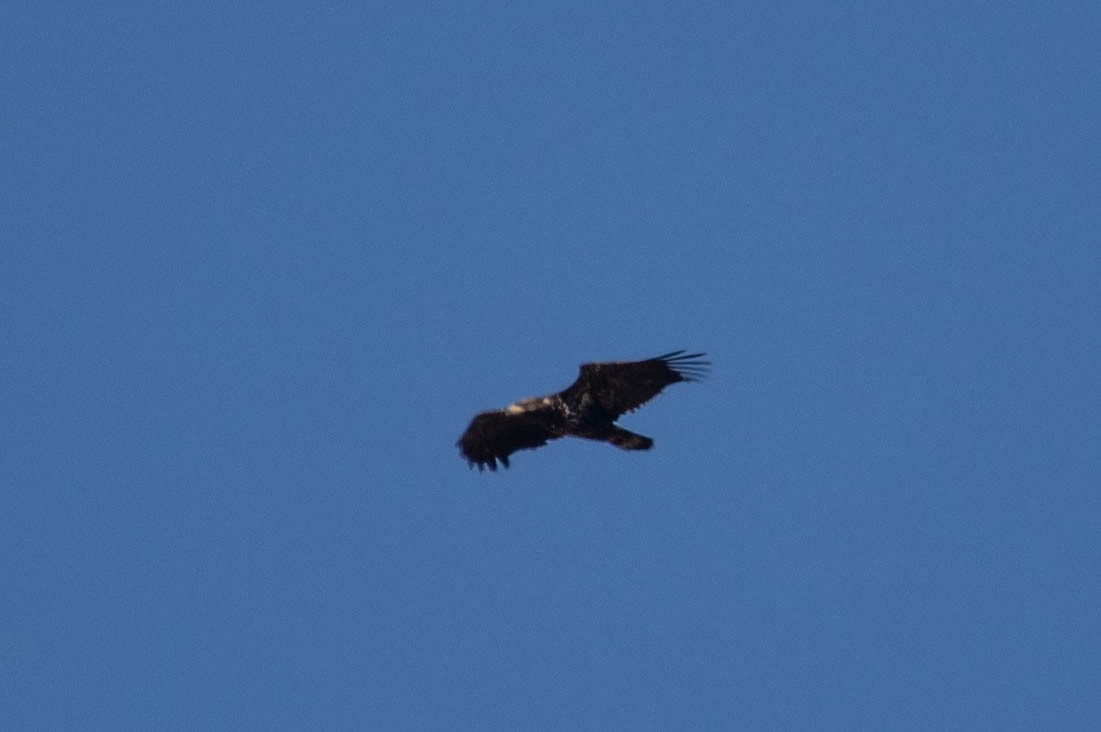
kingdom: Animalia
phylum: Chordata
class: Aves
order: Accipitriformes
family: Accipitridae
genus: Haliaeetus
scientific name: Haliaeetus leucocephalus
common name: Bald eagle
